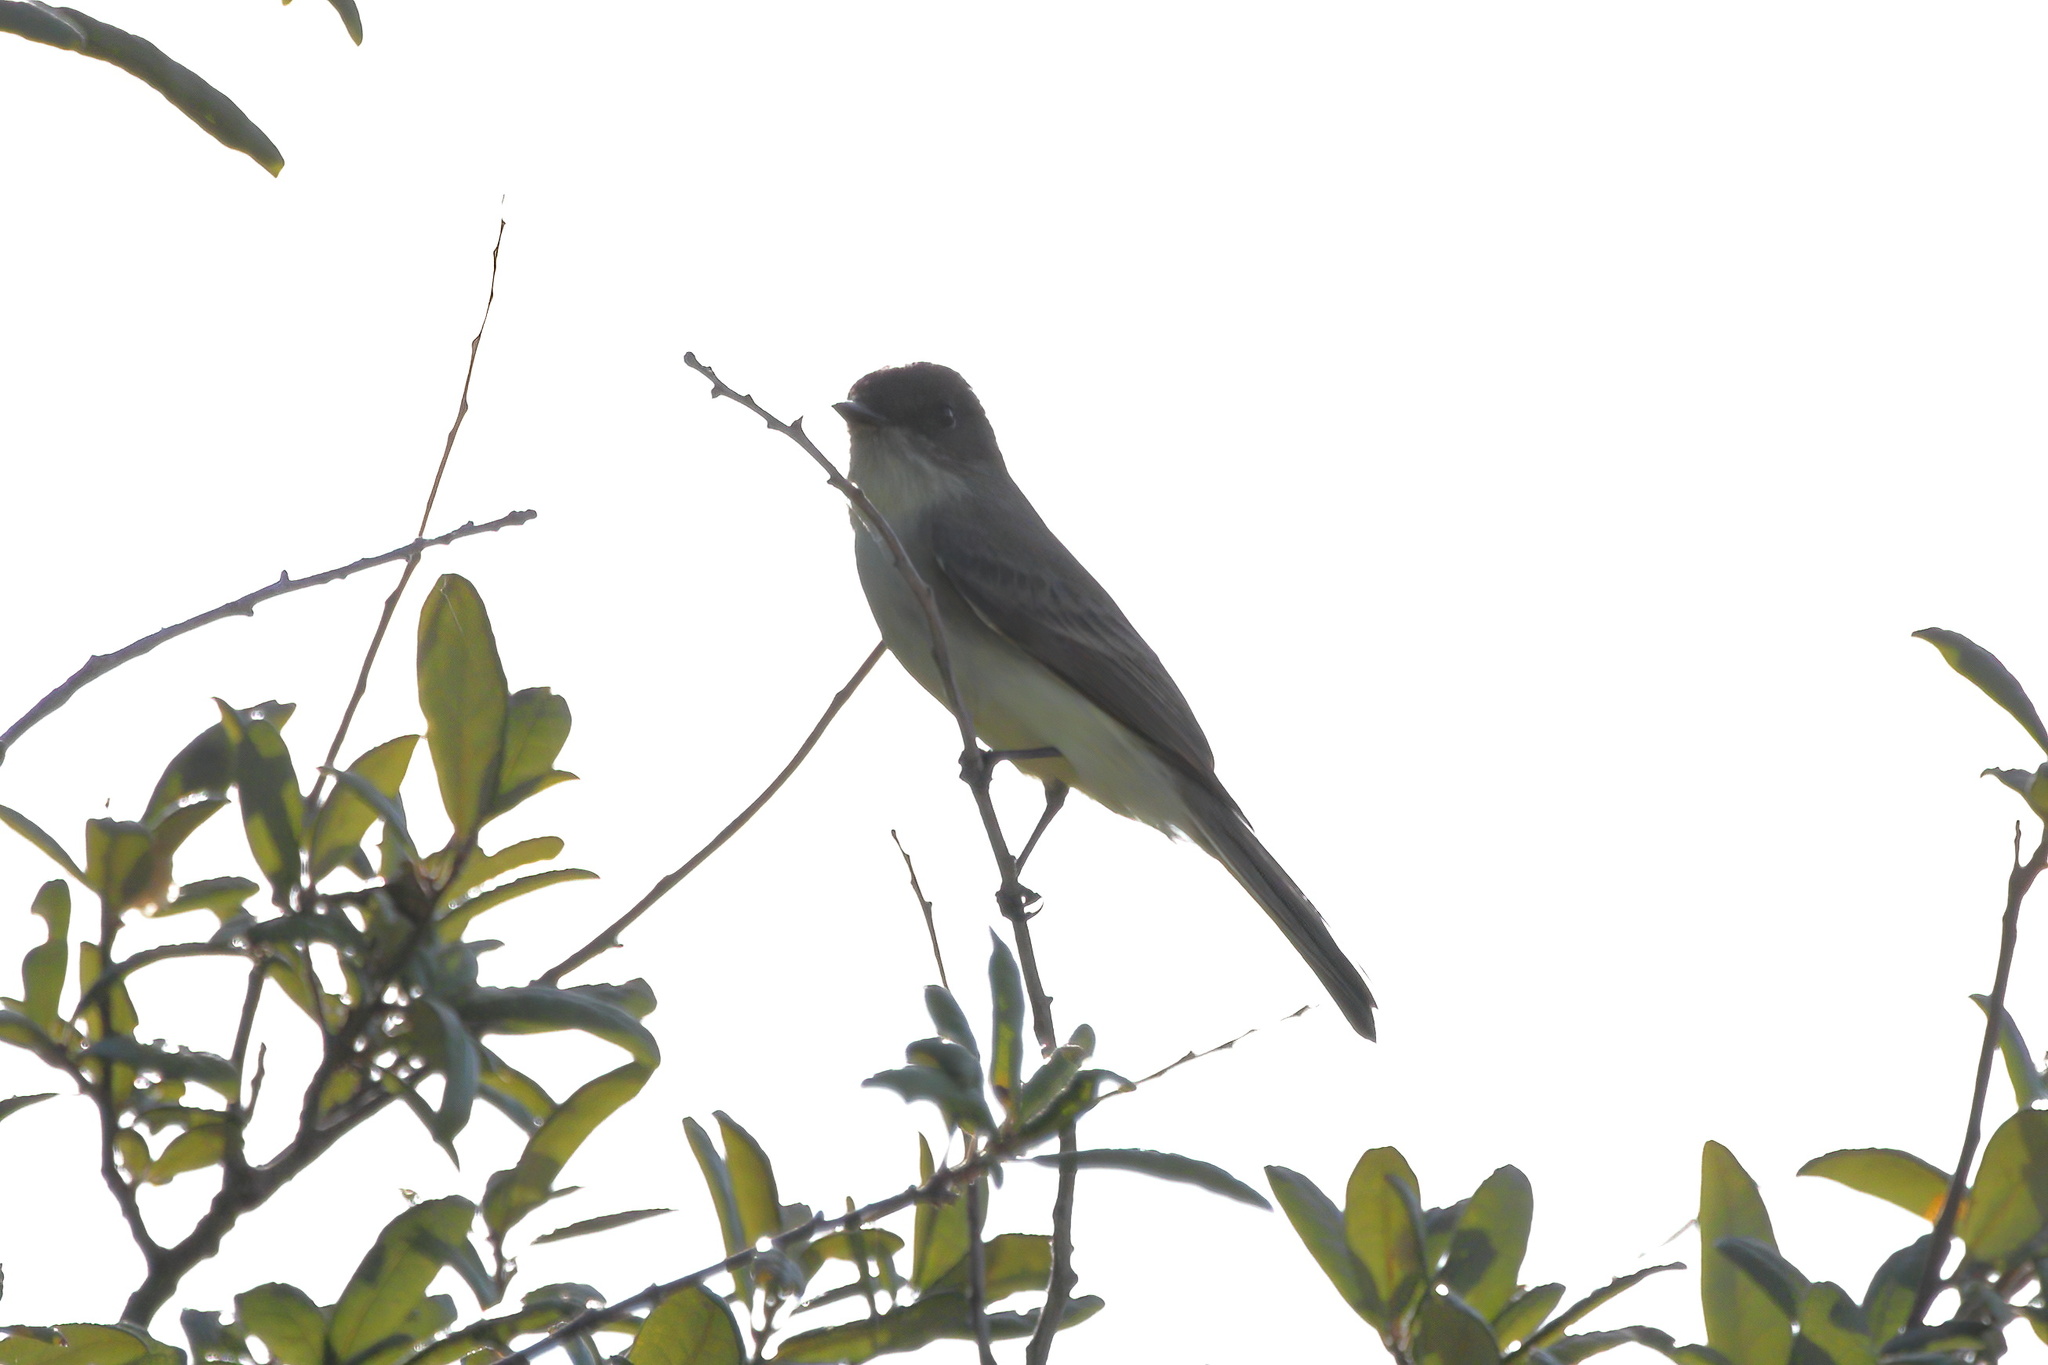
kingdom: Animalia
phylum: Chordata
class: Aves
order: Passeriformes
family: Tyrannidae
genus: Sayornis
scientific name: Sayornis phoebe
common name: Eastern phoebe
